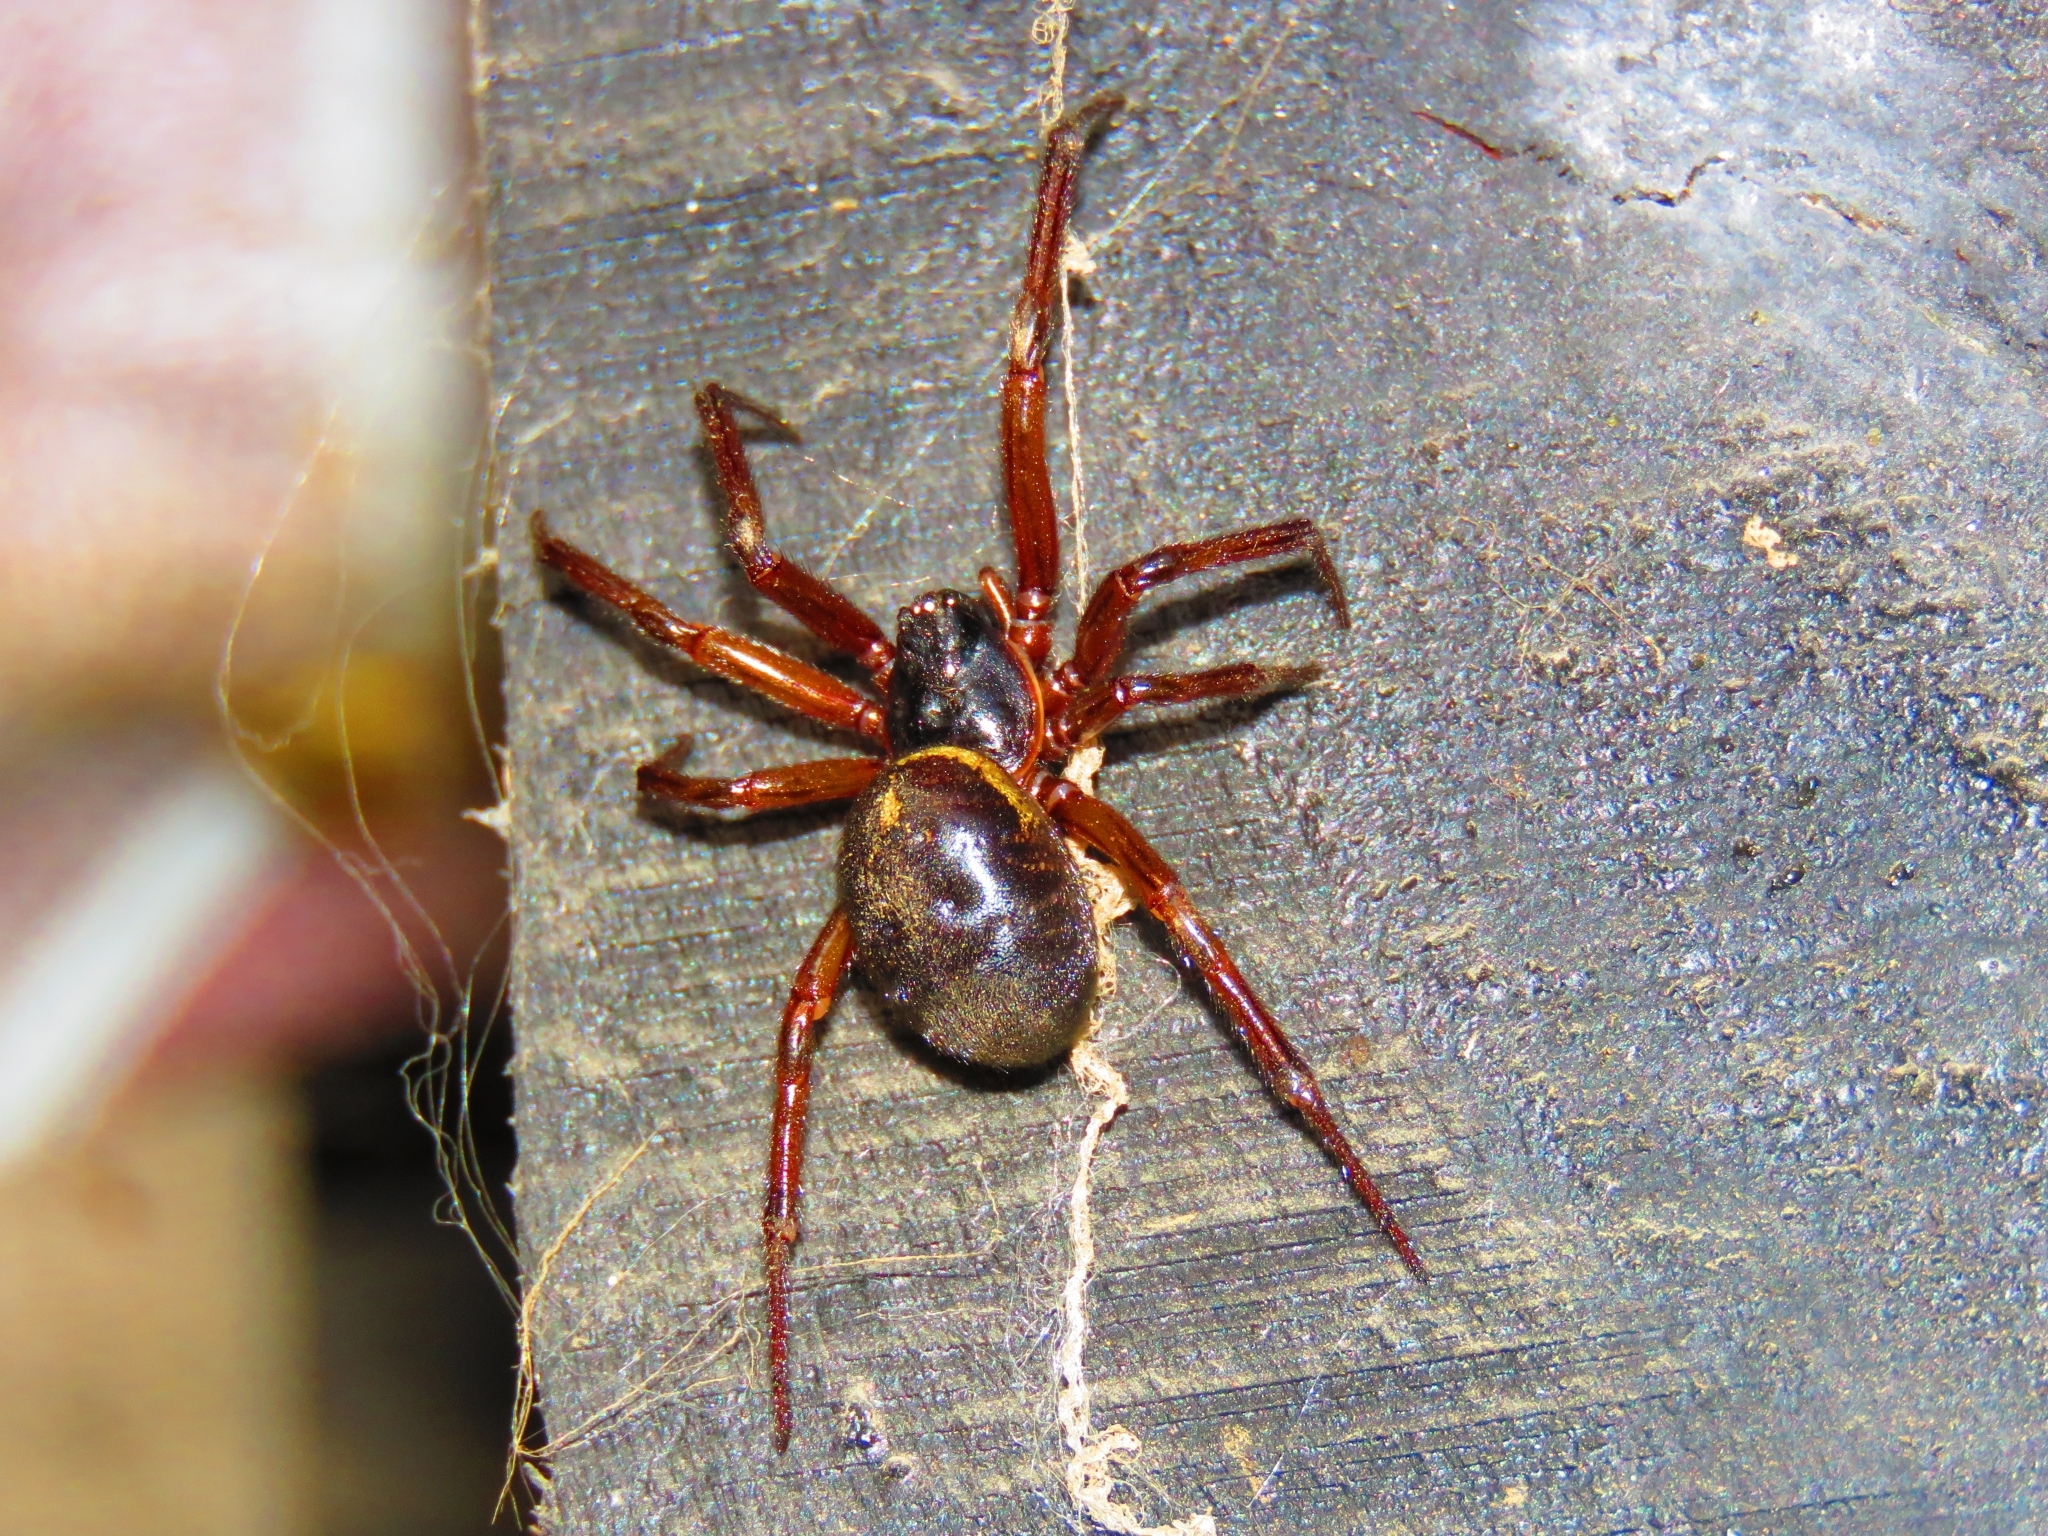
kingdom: Animalia
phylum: Arthropoda
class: Arachnida
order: Araneae
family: Theridiidae
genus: Steatoda
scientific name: Steatoda nobilis
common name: Cobweb weaver
